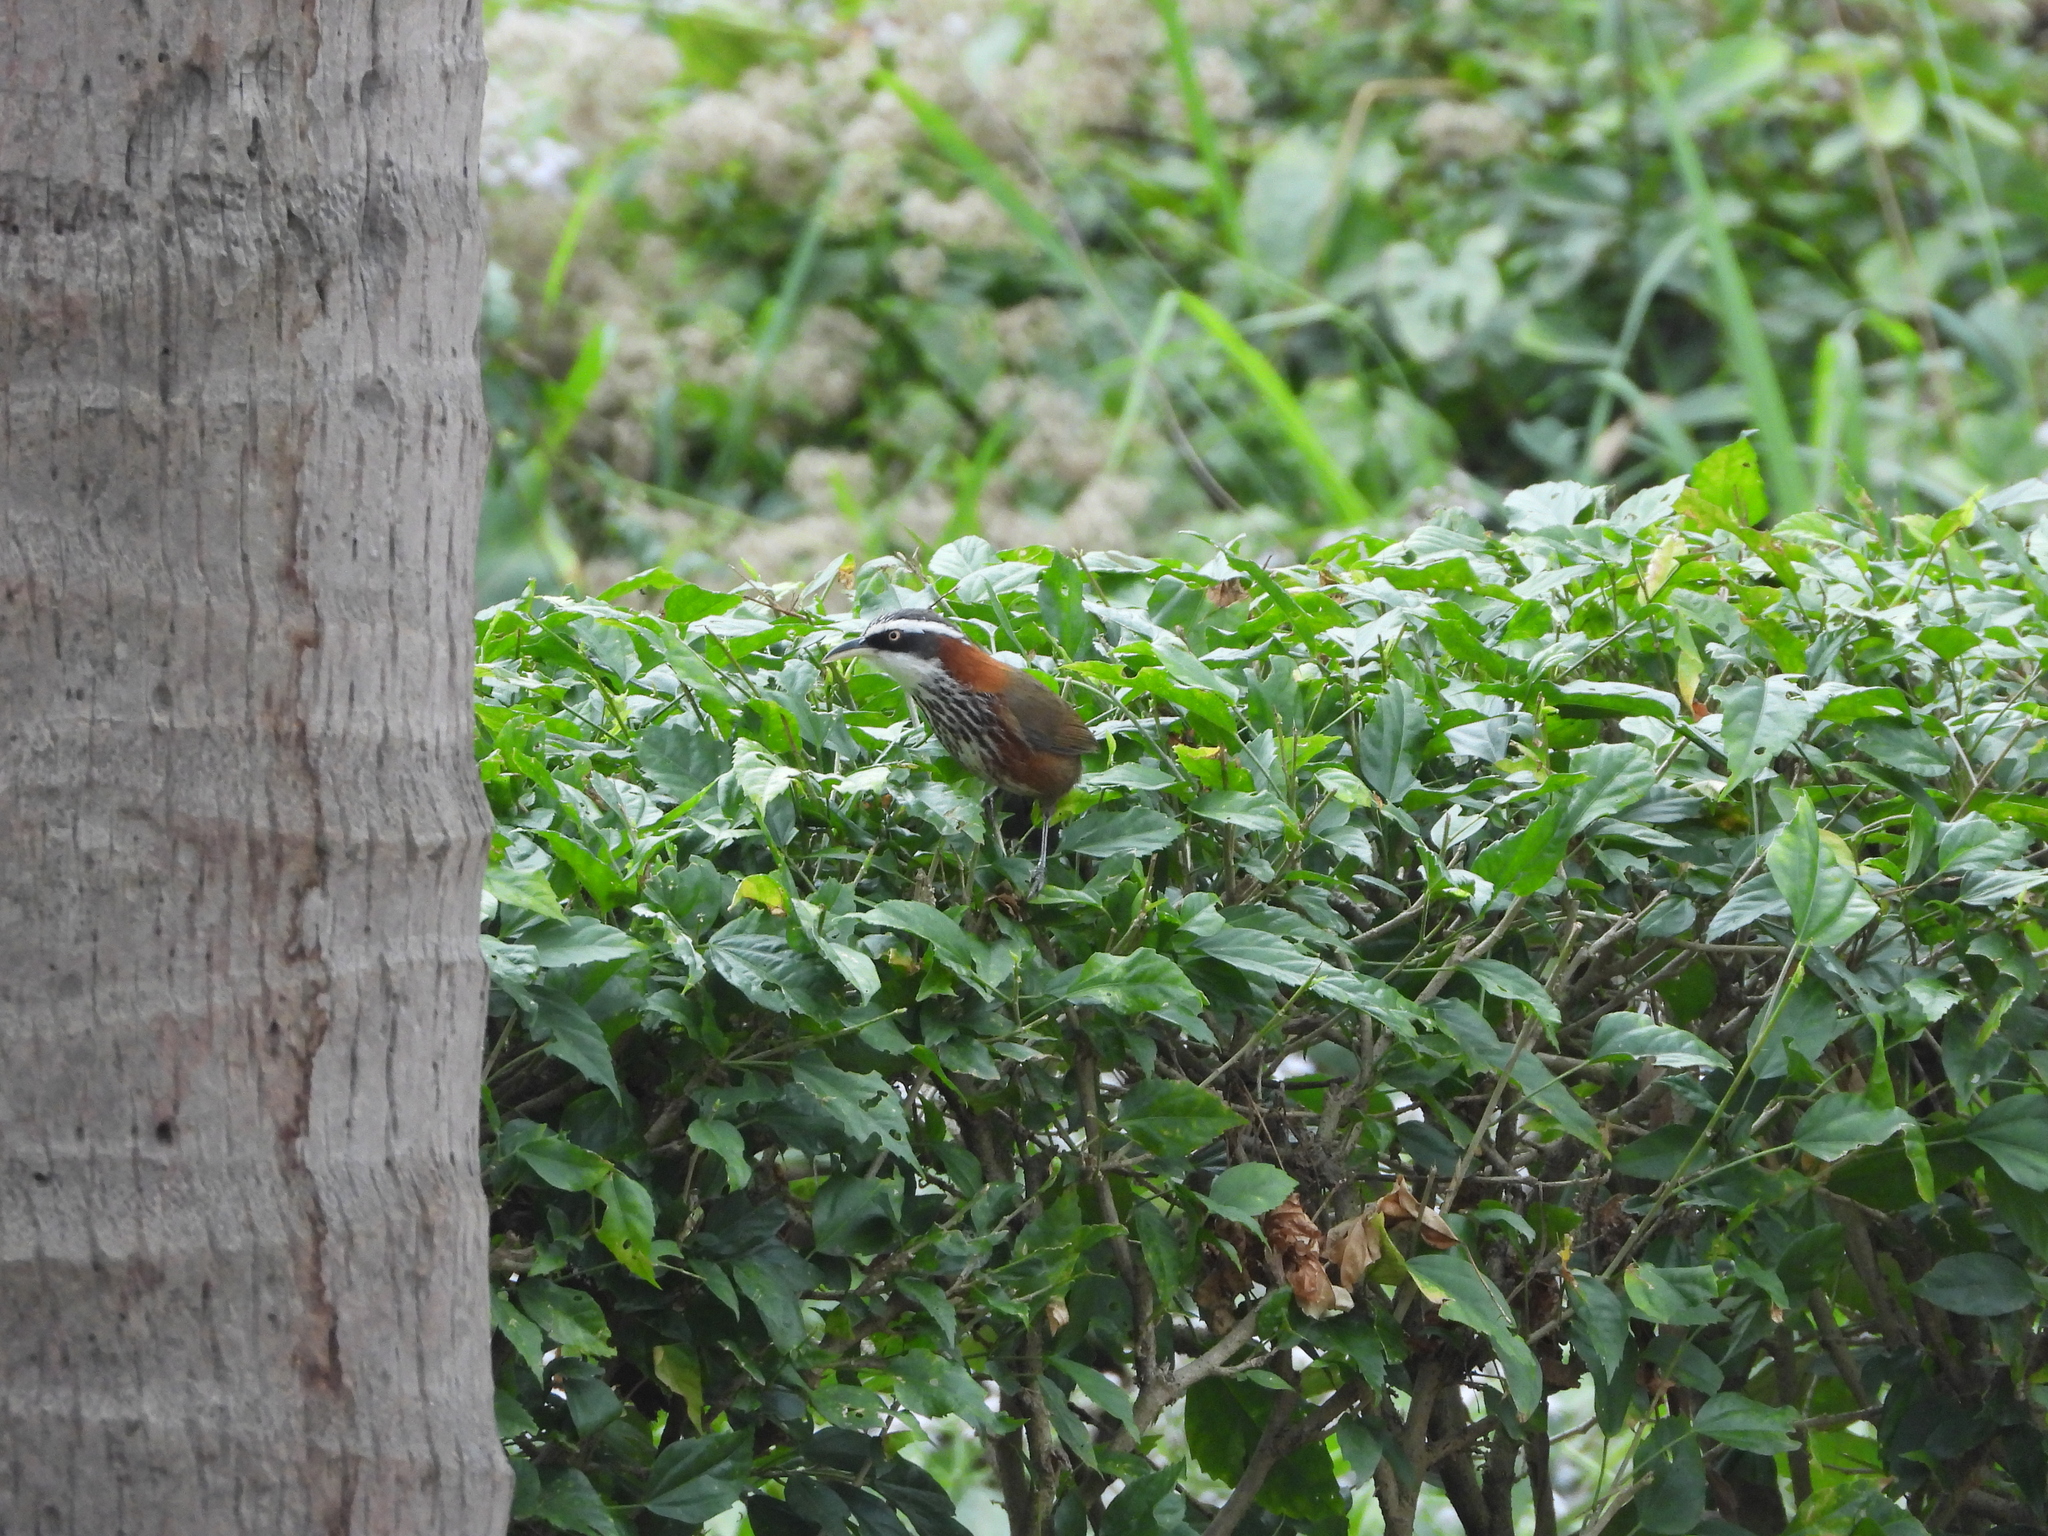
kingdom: Animalia
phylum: Chordata
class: Aves
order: Passeriformes
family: Timaliidae
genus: Pomatorhinus
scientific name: Pomatorhinus musicus
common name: Taiwan scimitar-babbler
